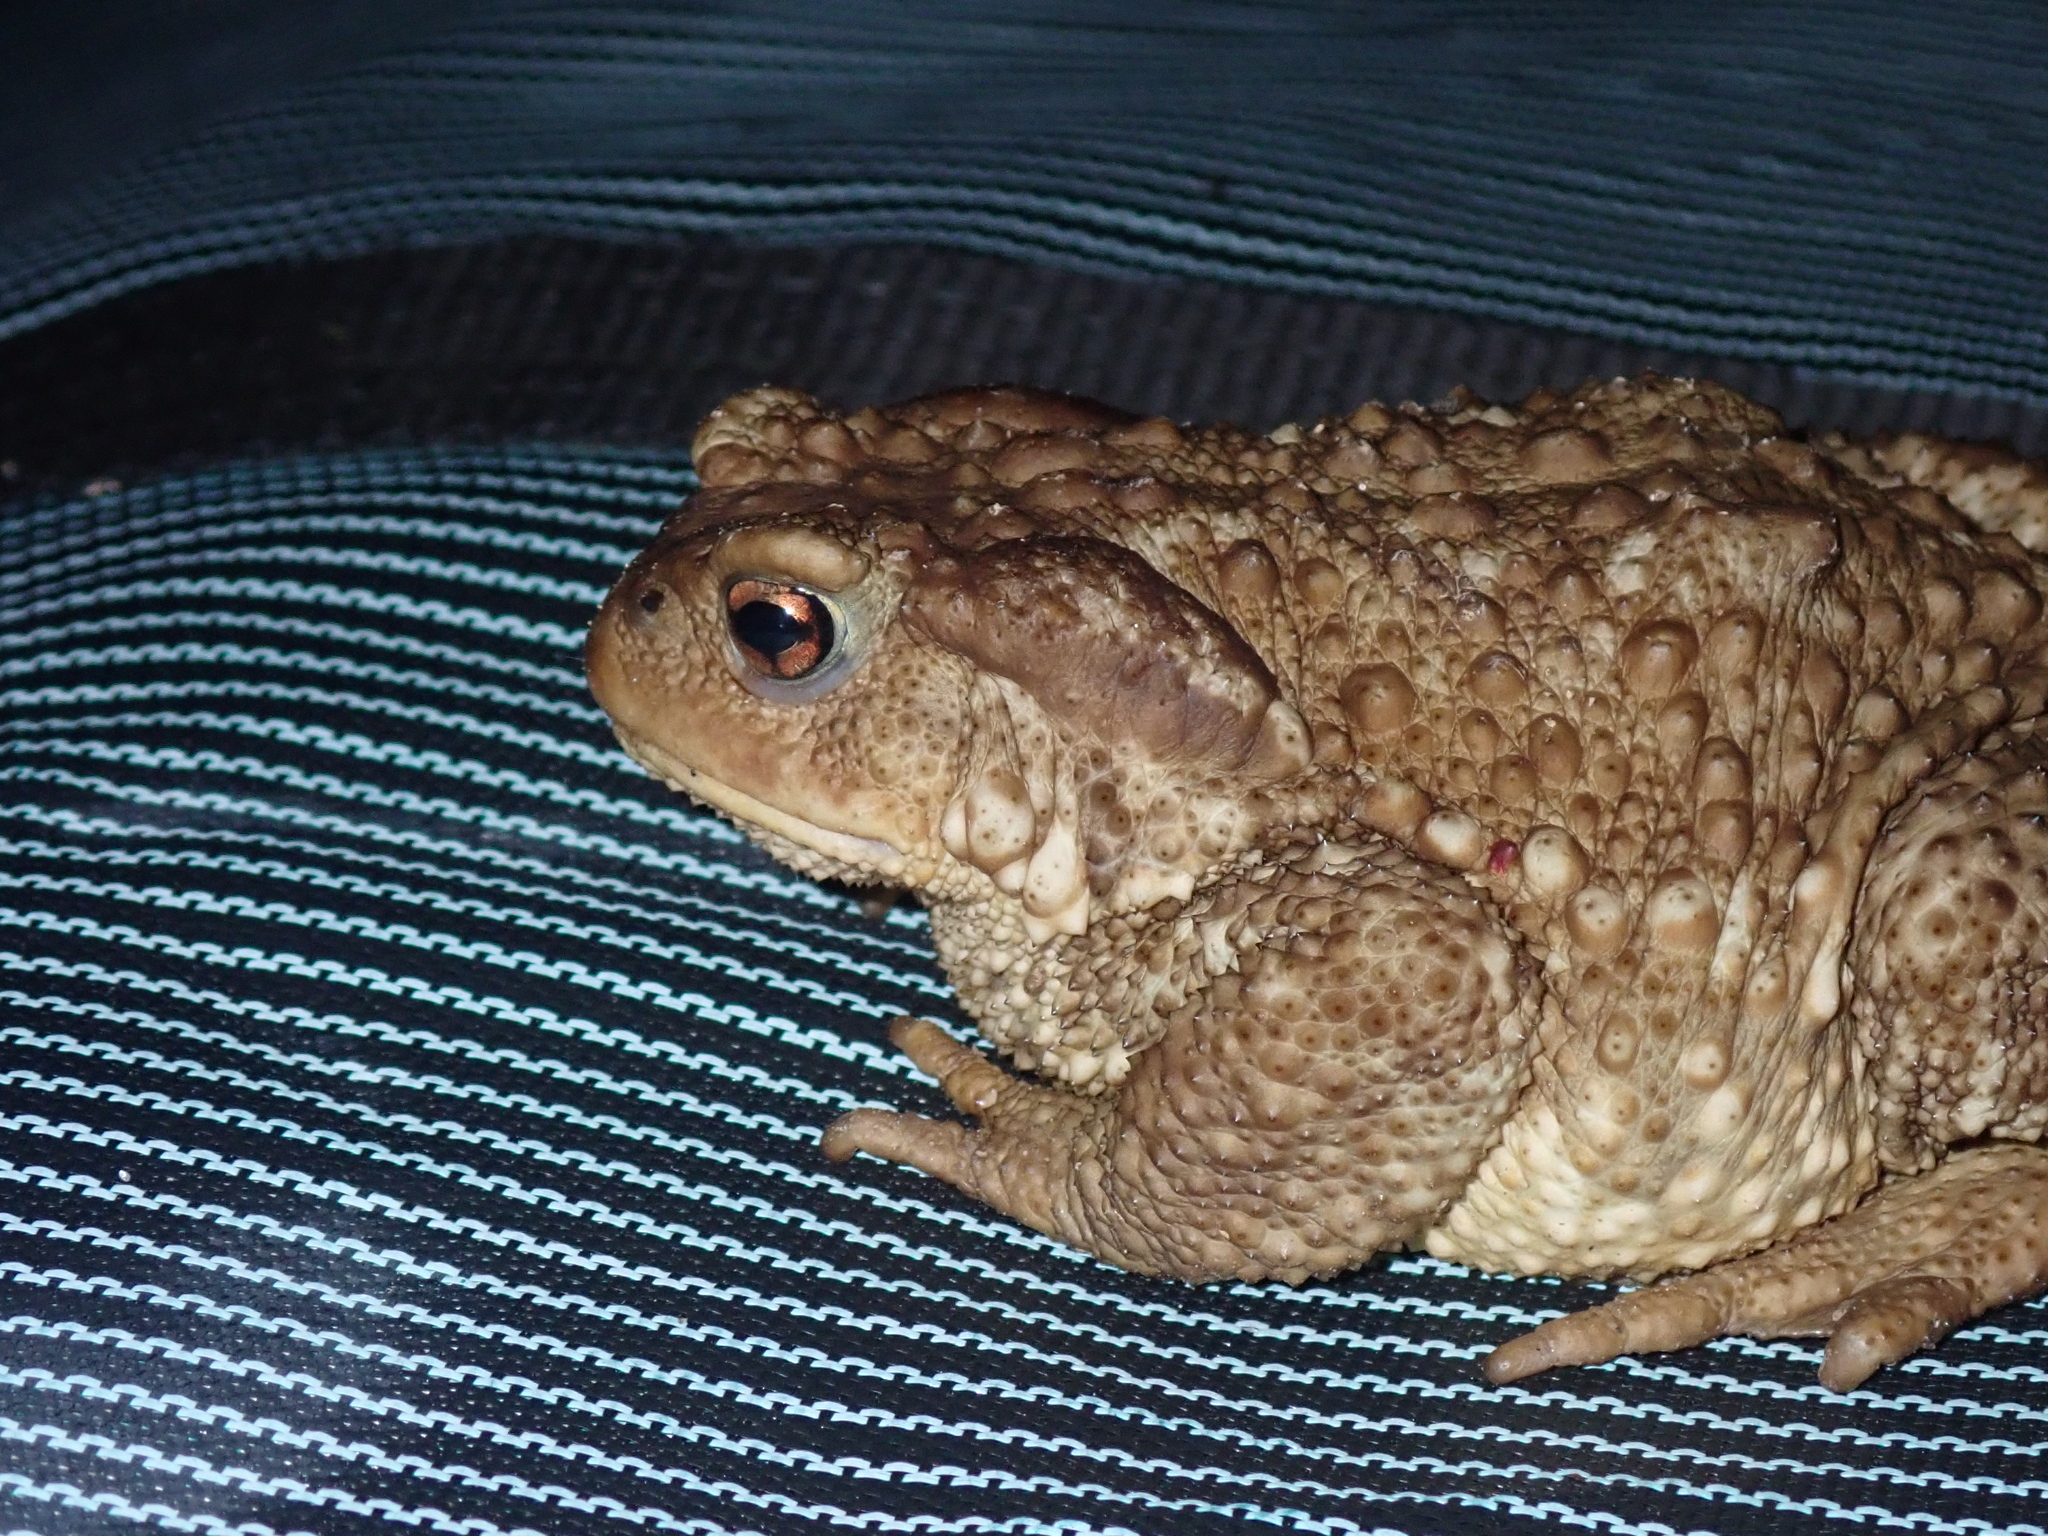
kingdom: Animalia
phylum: Chordata
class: Amphibia
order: Anura
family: Bufonidae
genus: Bufo
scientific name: Bufo spinosus
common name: Western common toad
